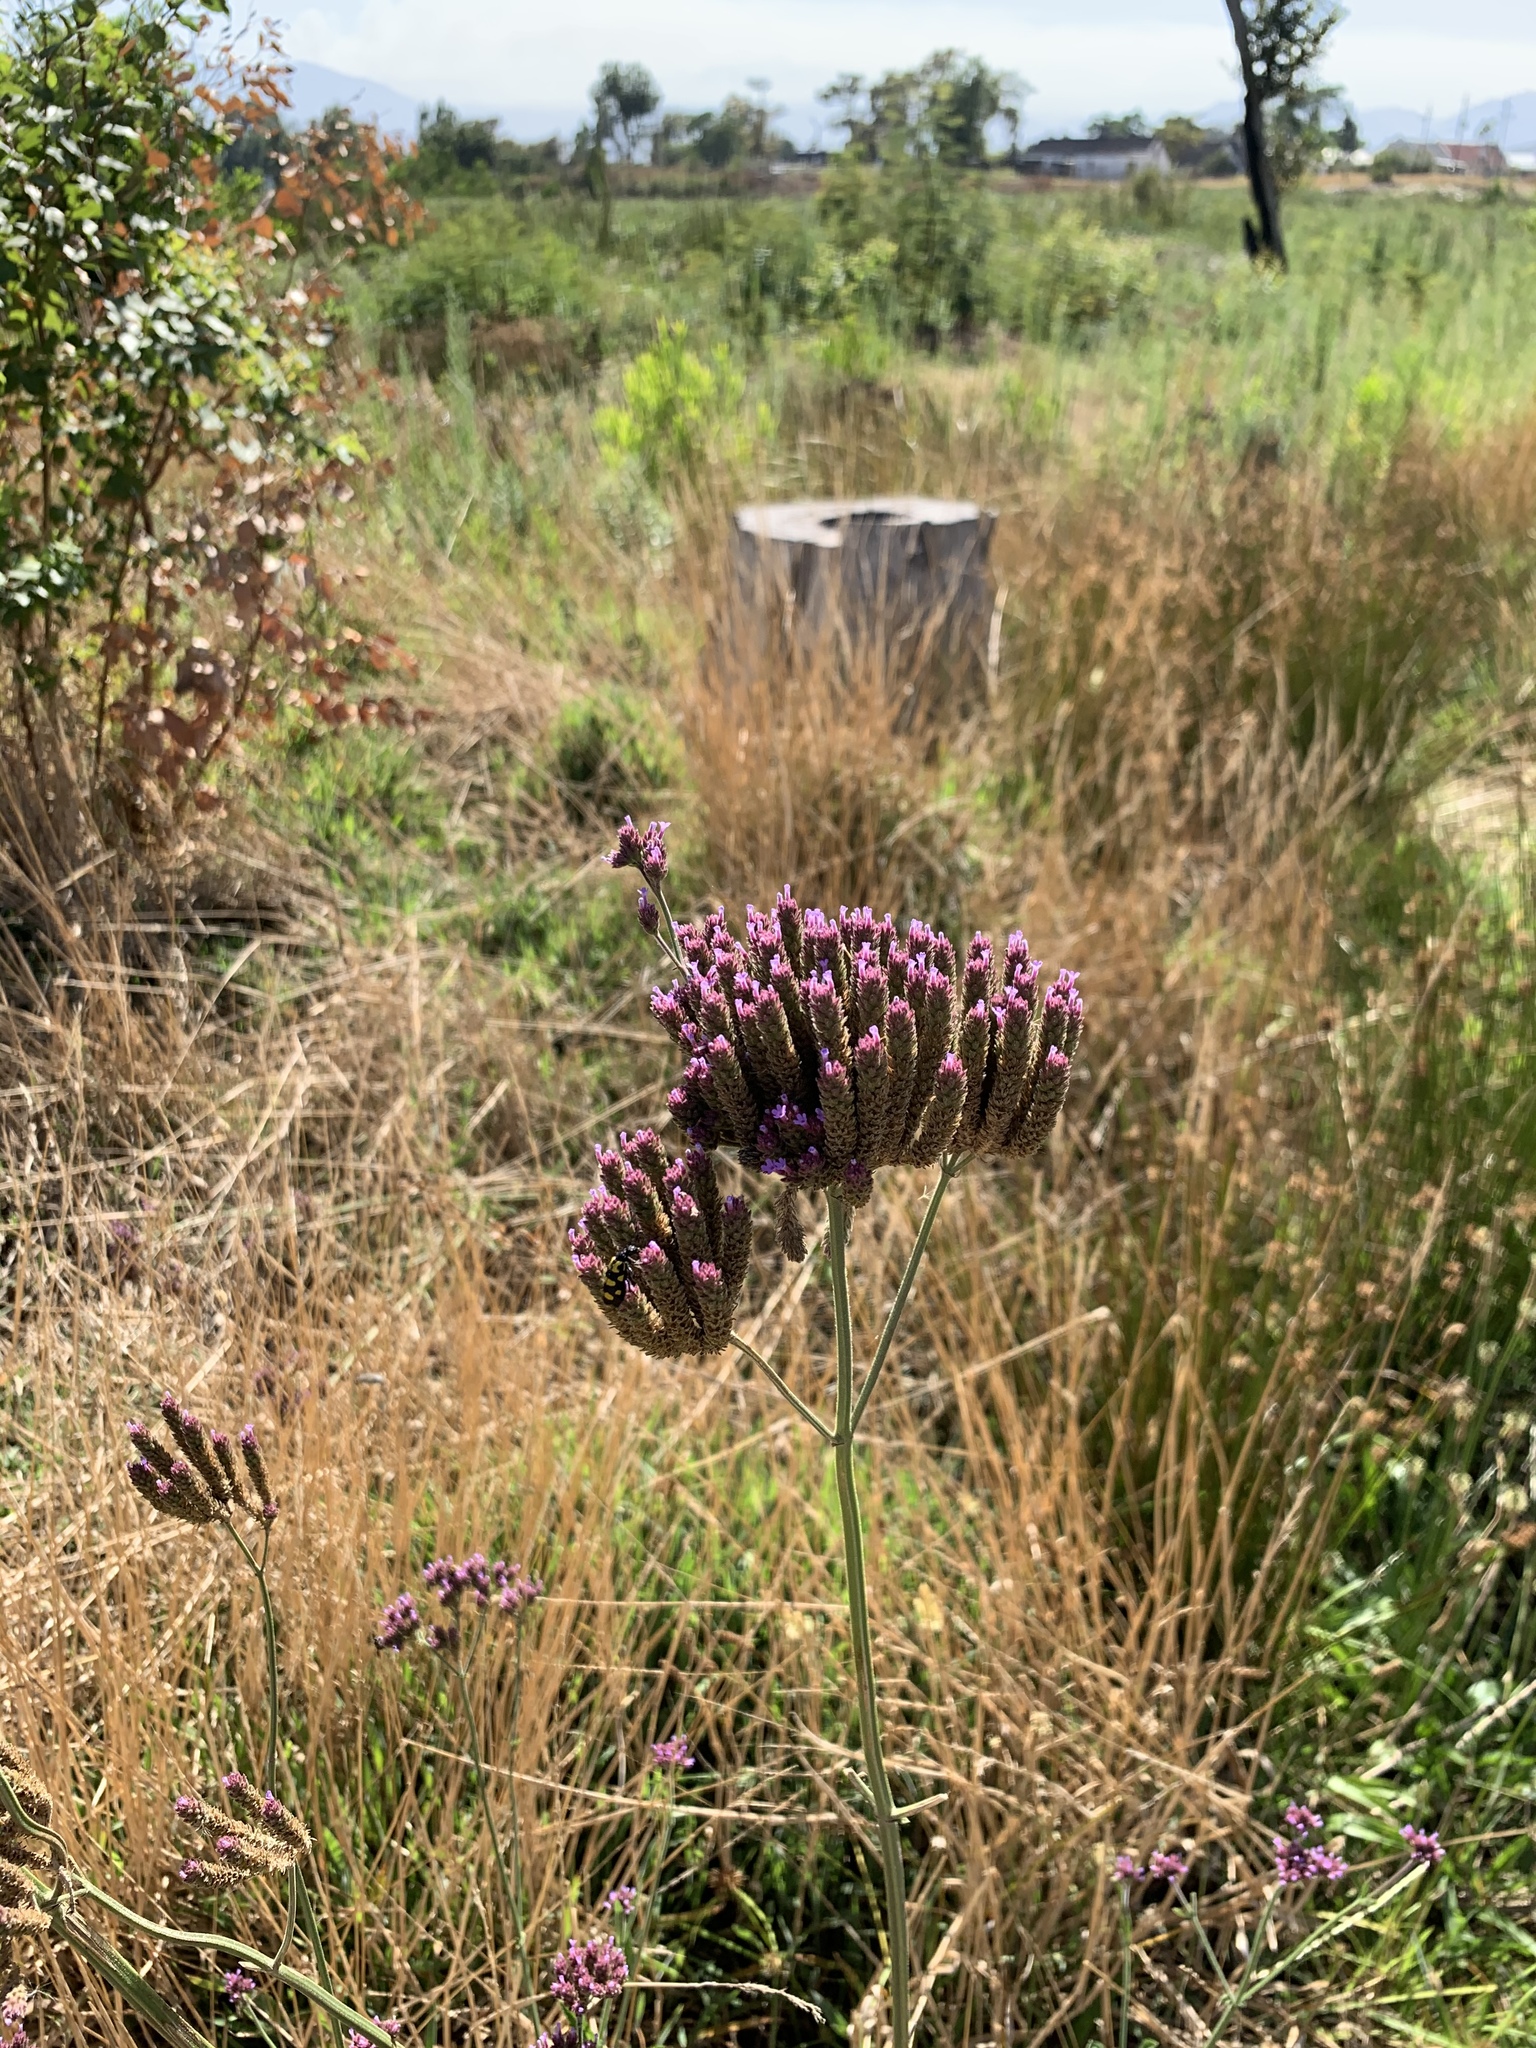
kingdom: Plantae
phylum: Tracheophyta
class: Magnoliopsida
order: Lamiales
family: Verbenaceae
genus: Verbena
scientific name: Verbena bonariensis
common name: Purpletop vervain
